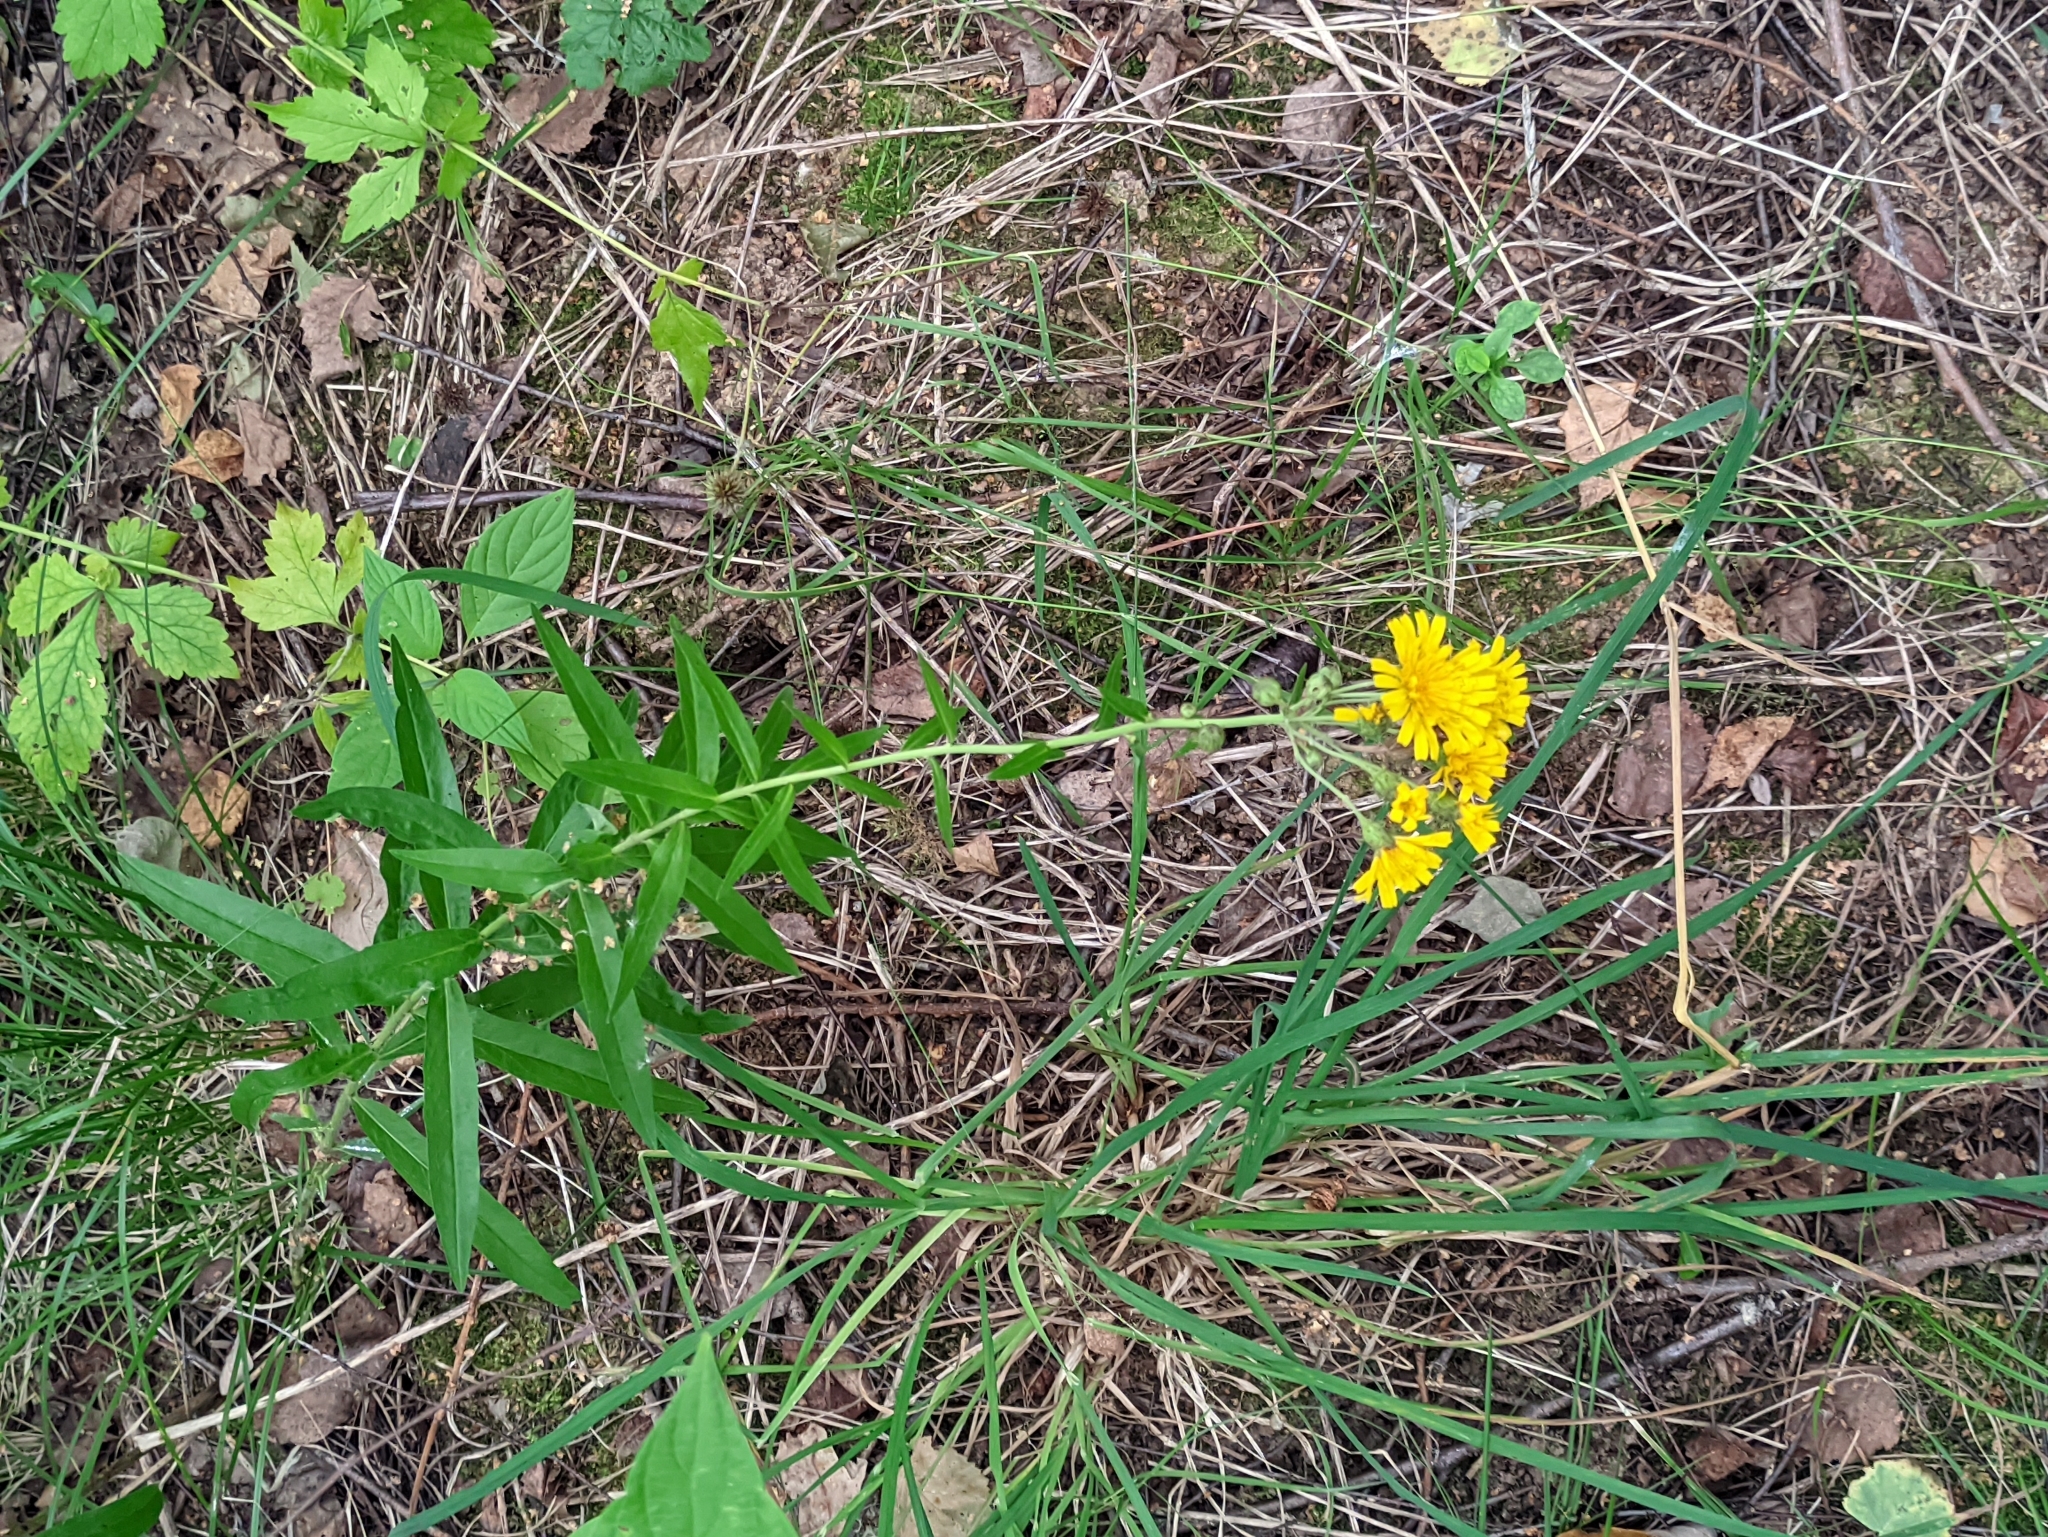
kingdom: Plantae
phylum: Tracheophyta
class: Magnoliopsida
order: Asterales
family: Asteraceae
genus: Hieracium
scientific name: Hieracium umbellatum
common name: Northern hawkweed
